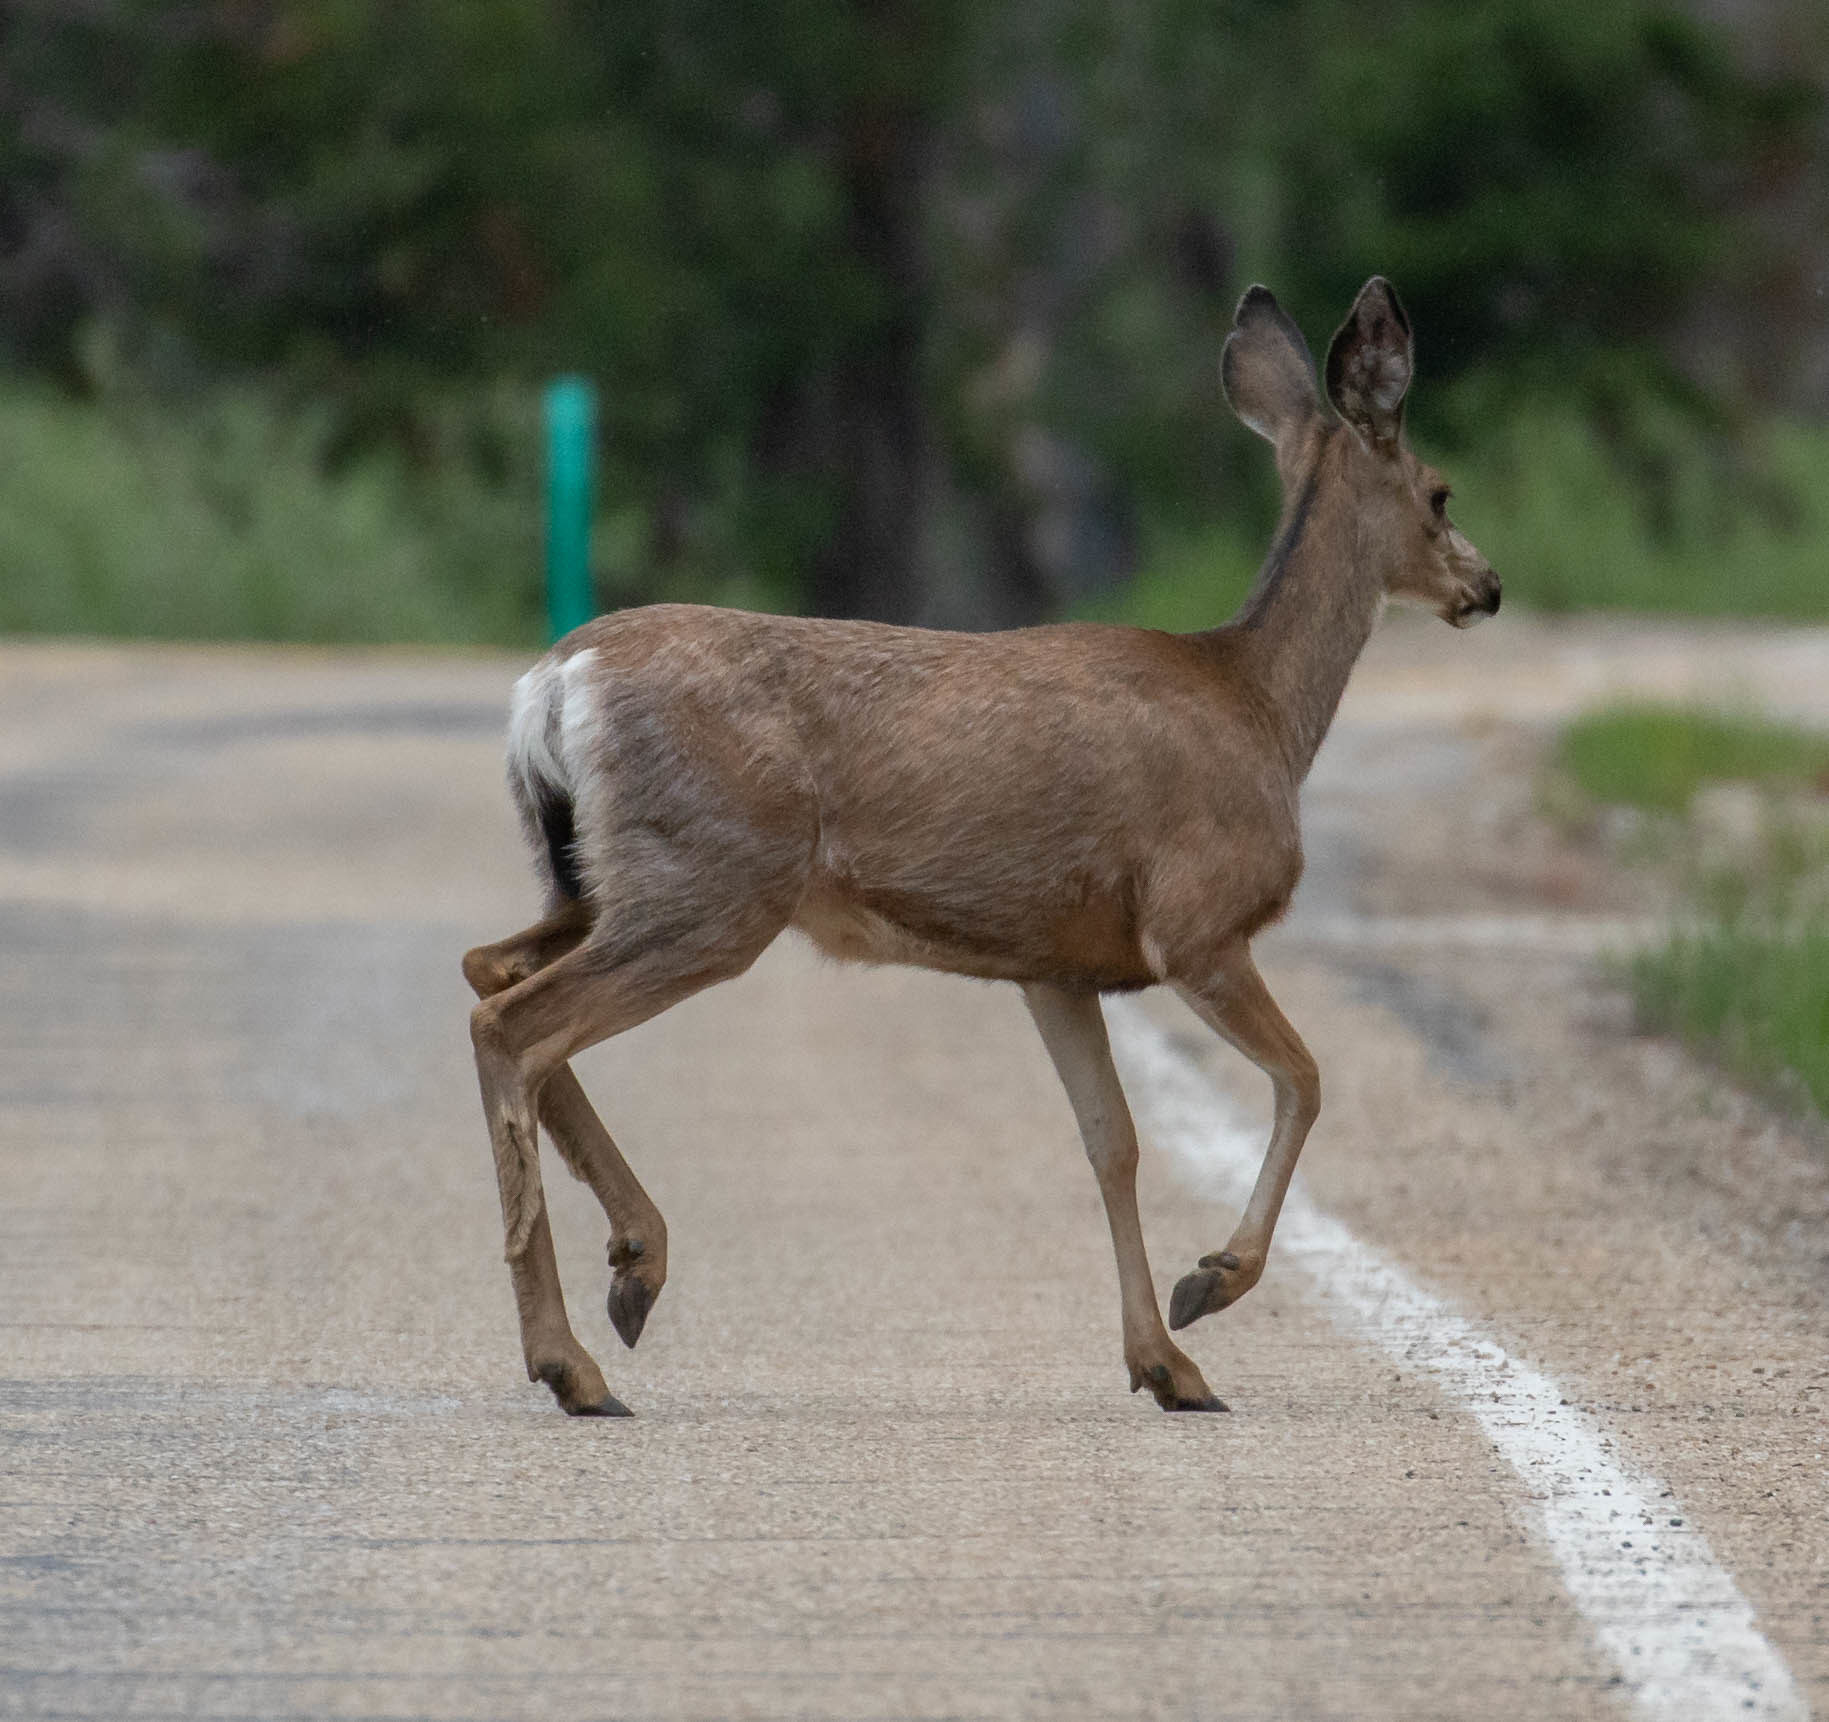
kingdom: Animalia
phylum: Chordata
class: Mammalia
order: Artiodactyla
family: Cervidae
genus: Odocoileus
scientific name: Odocoileus hemionus
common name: Mule deer
